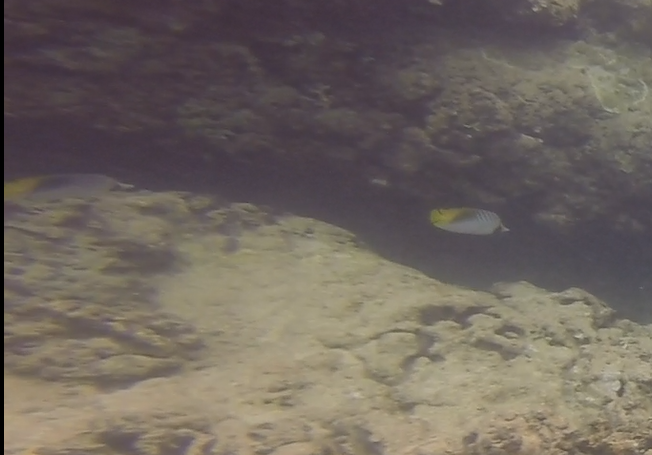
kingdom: Animalia
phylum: Chordata
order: Perciformes
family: Chaetodontidae
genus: Chaetodon
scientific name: Chaetodon auriga
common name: Threadfin butterflyfish
